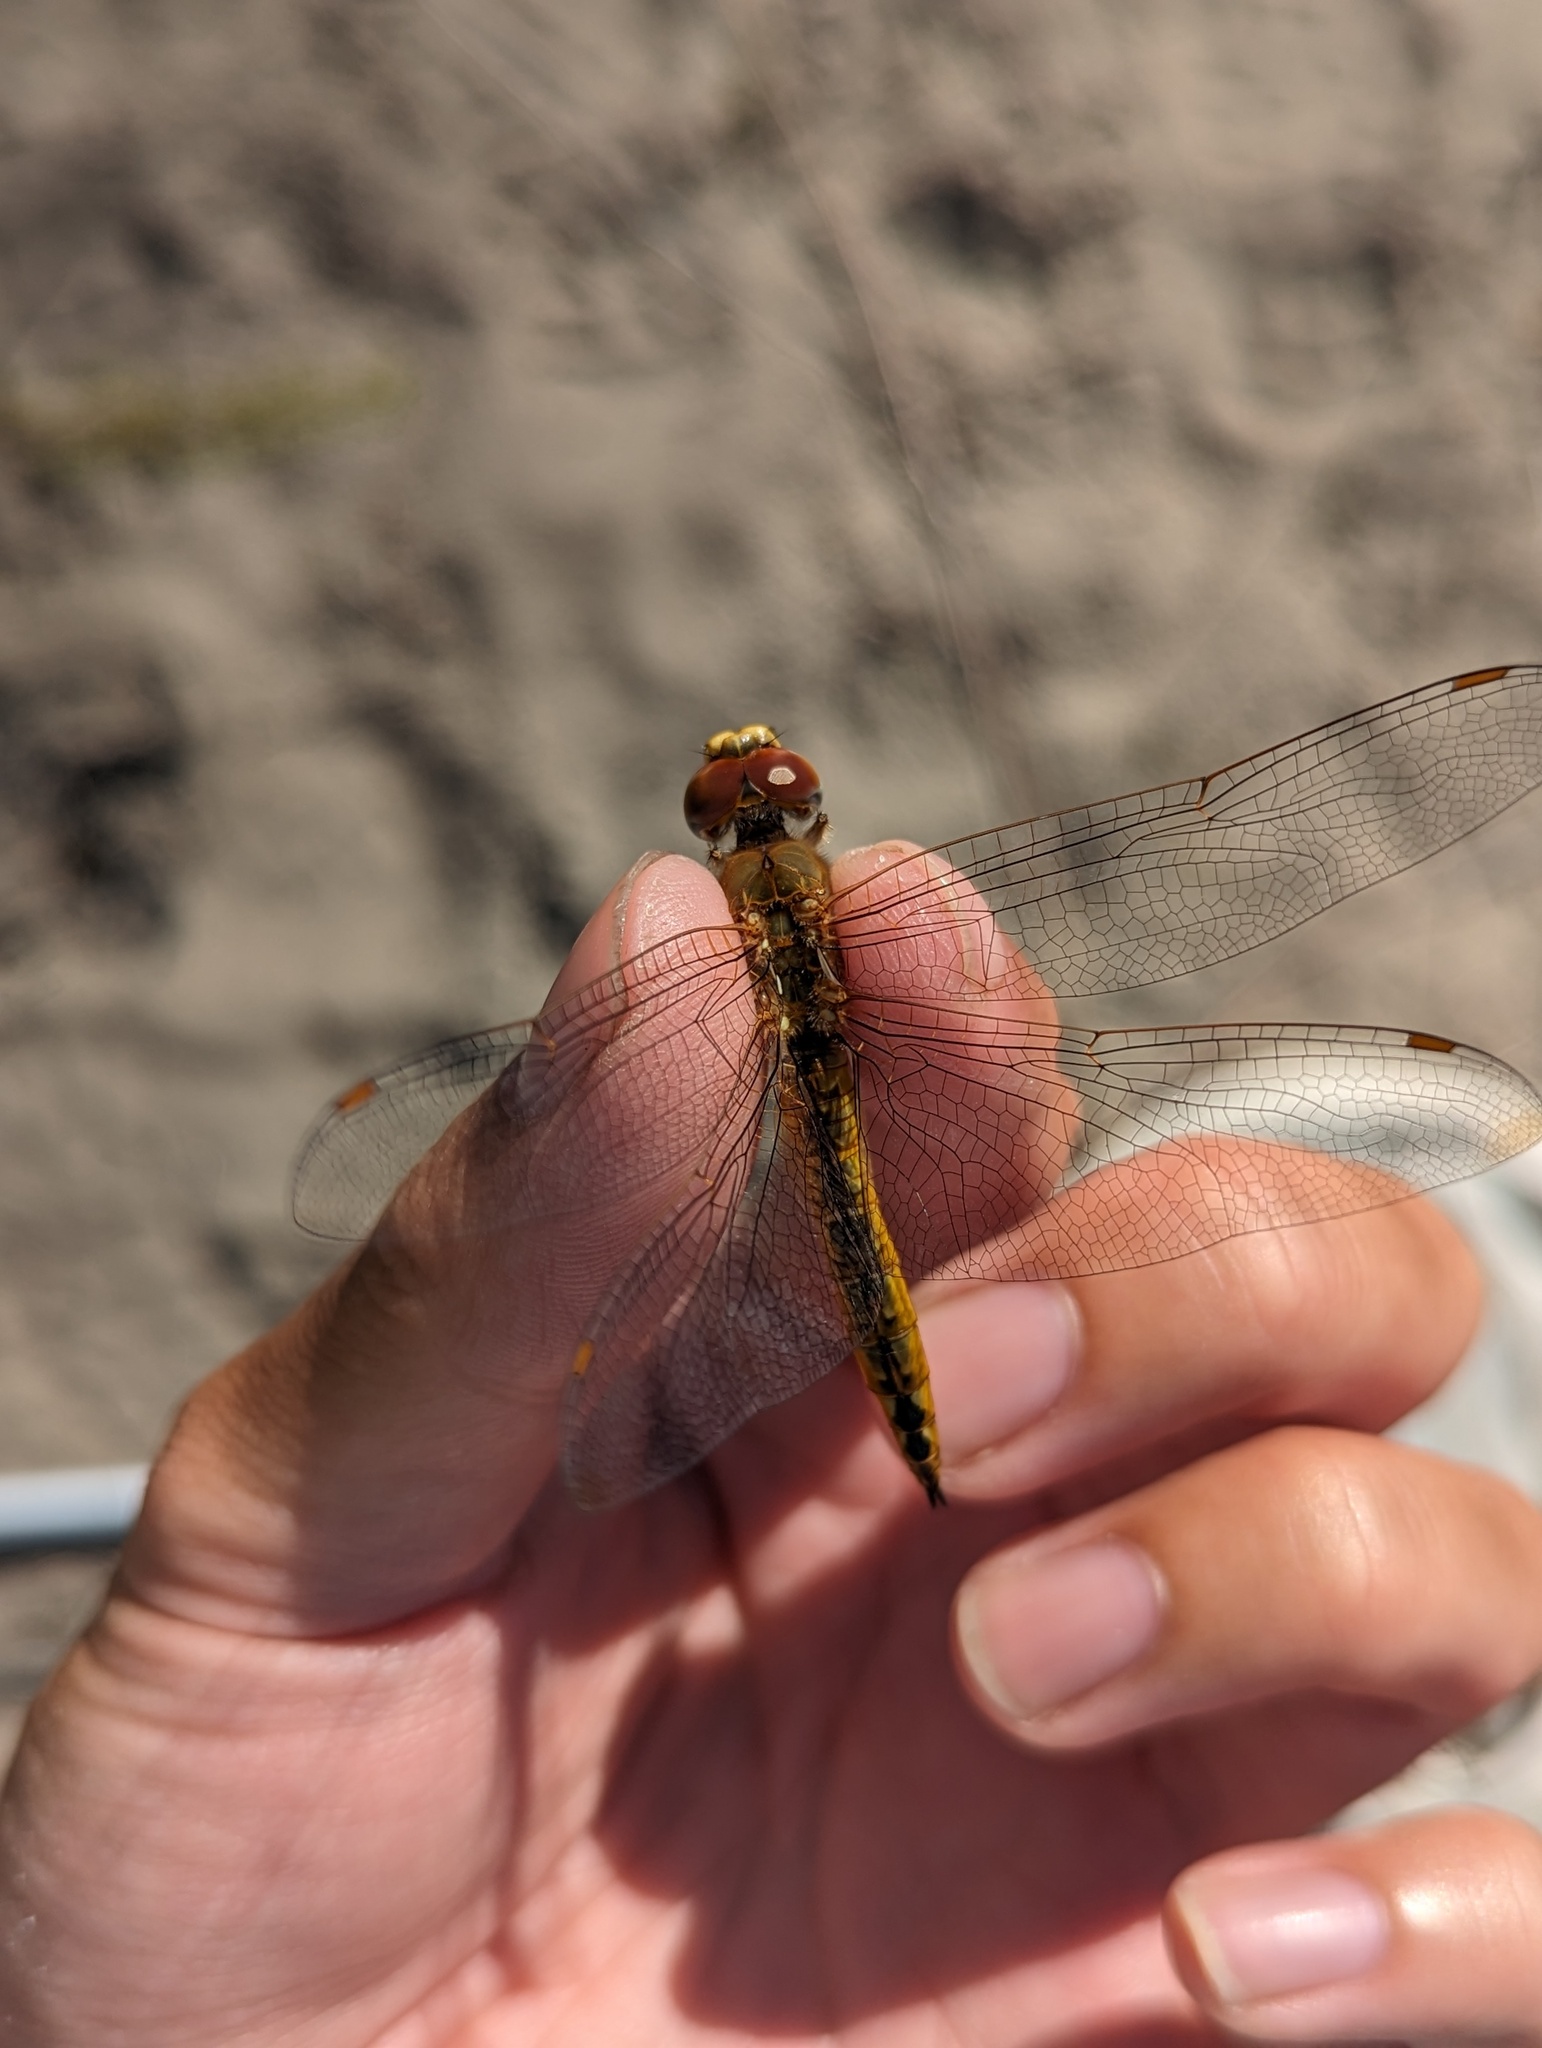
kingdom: Animalia
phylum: Arthropoda
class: Insecta
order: Odonata
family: Libellulidae
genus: Pantala
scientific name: Pantala flavescens
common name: Wandering glider
